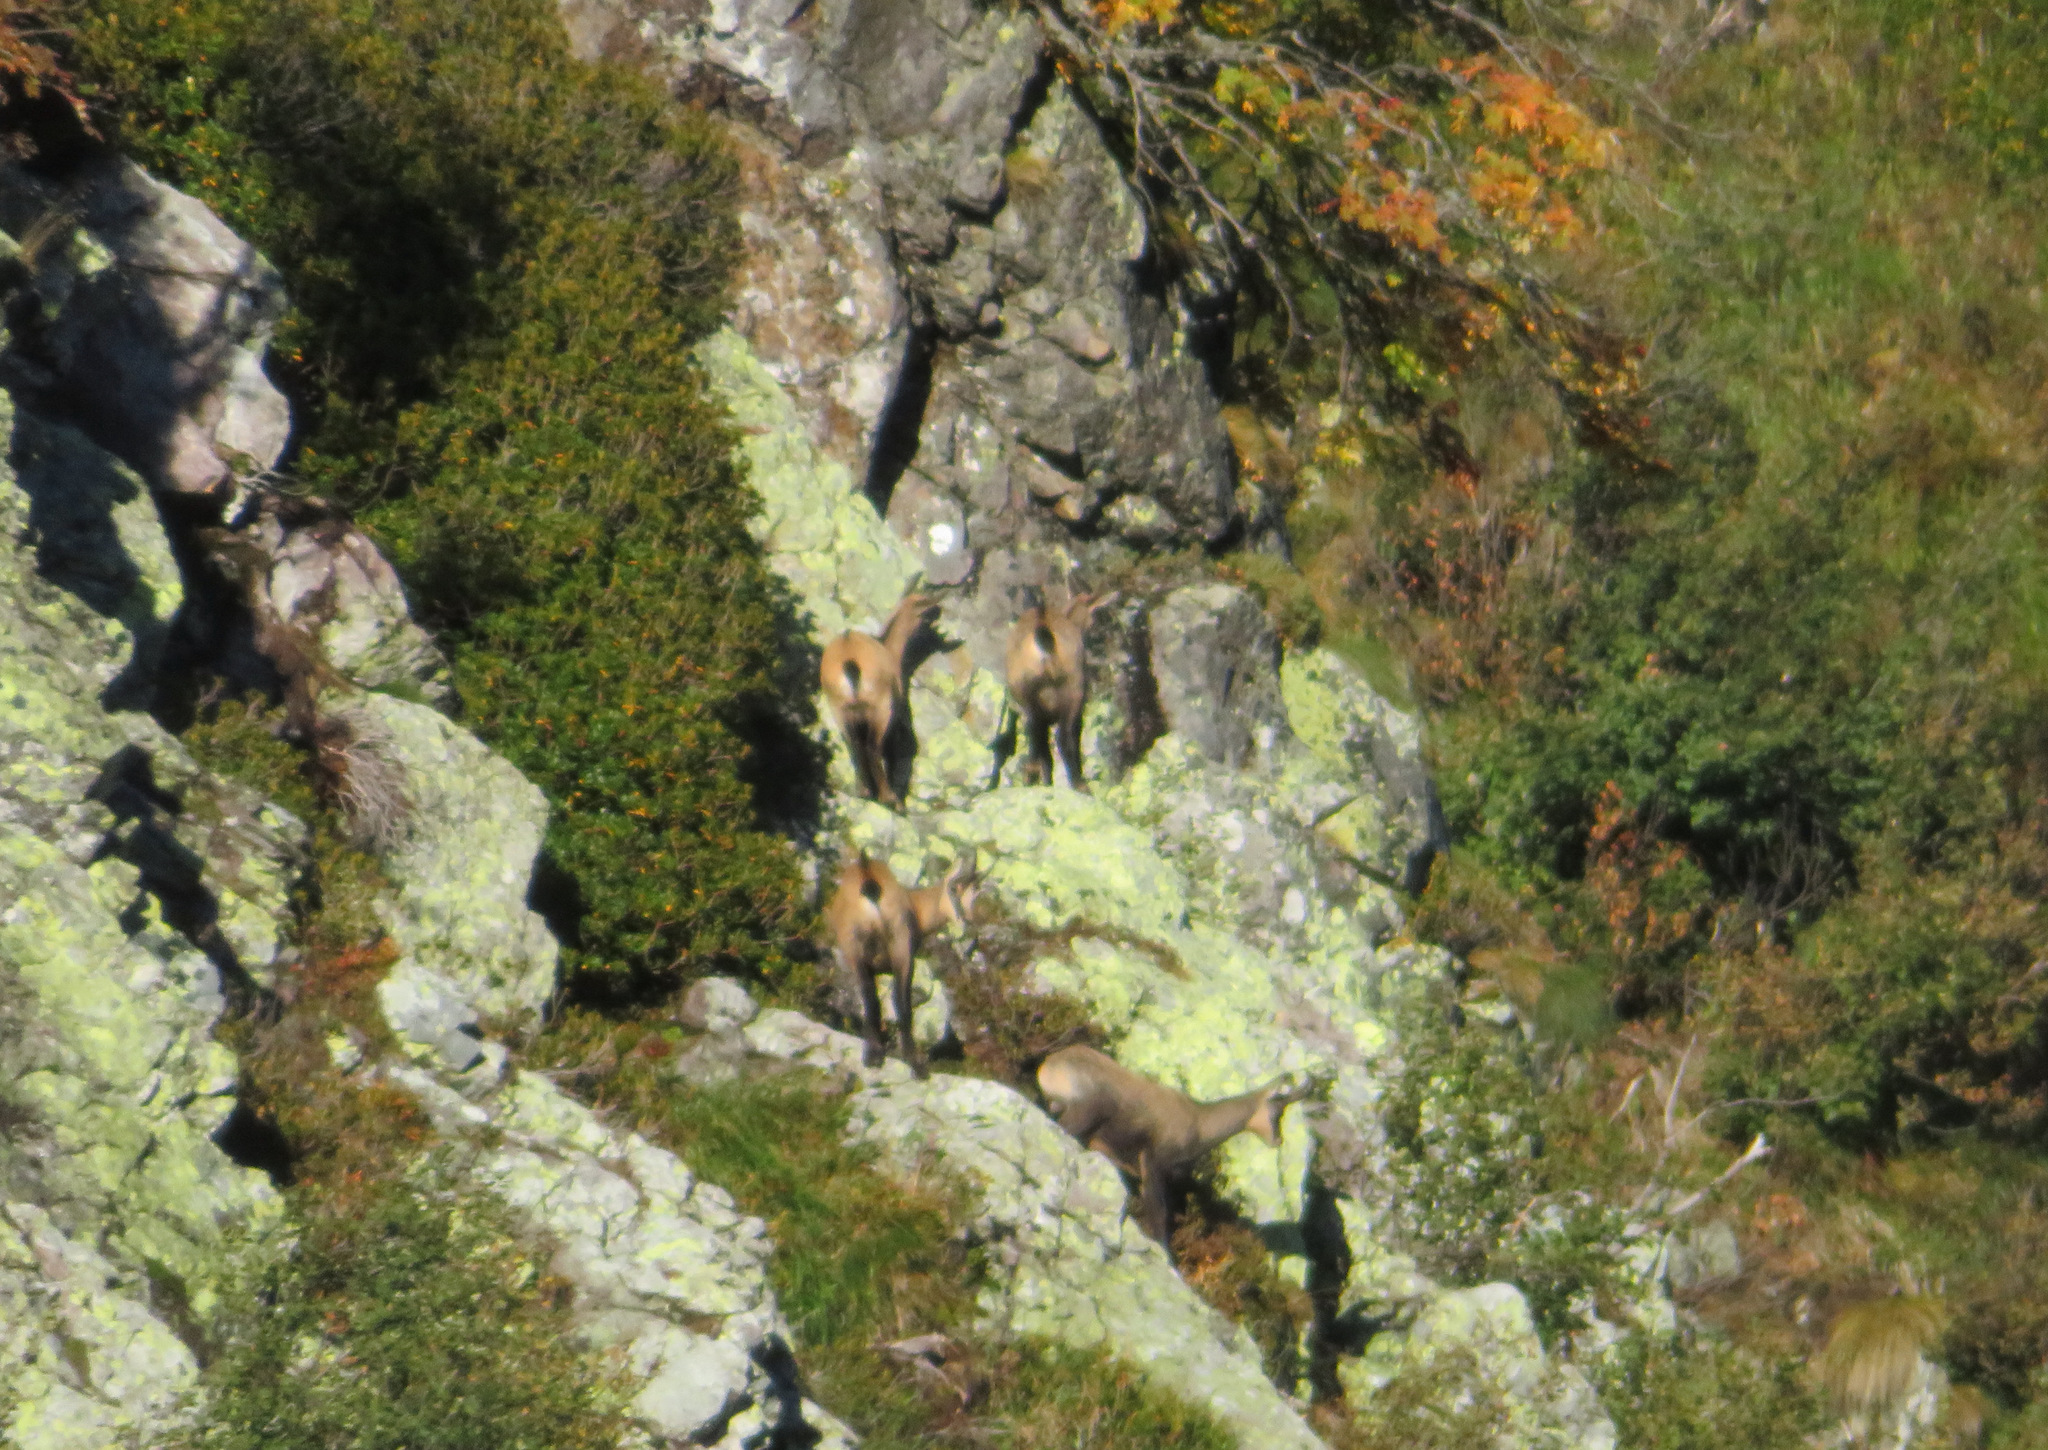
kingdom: Animalia
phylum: Chordata
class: Mammalia
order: Artiodactyla
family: Bovidae
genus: Rupicapra
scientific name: Rupicapra rupicapra
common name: Chamois
